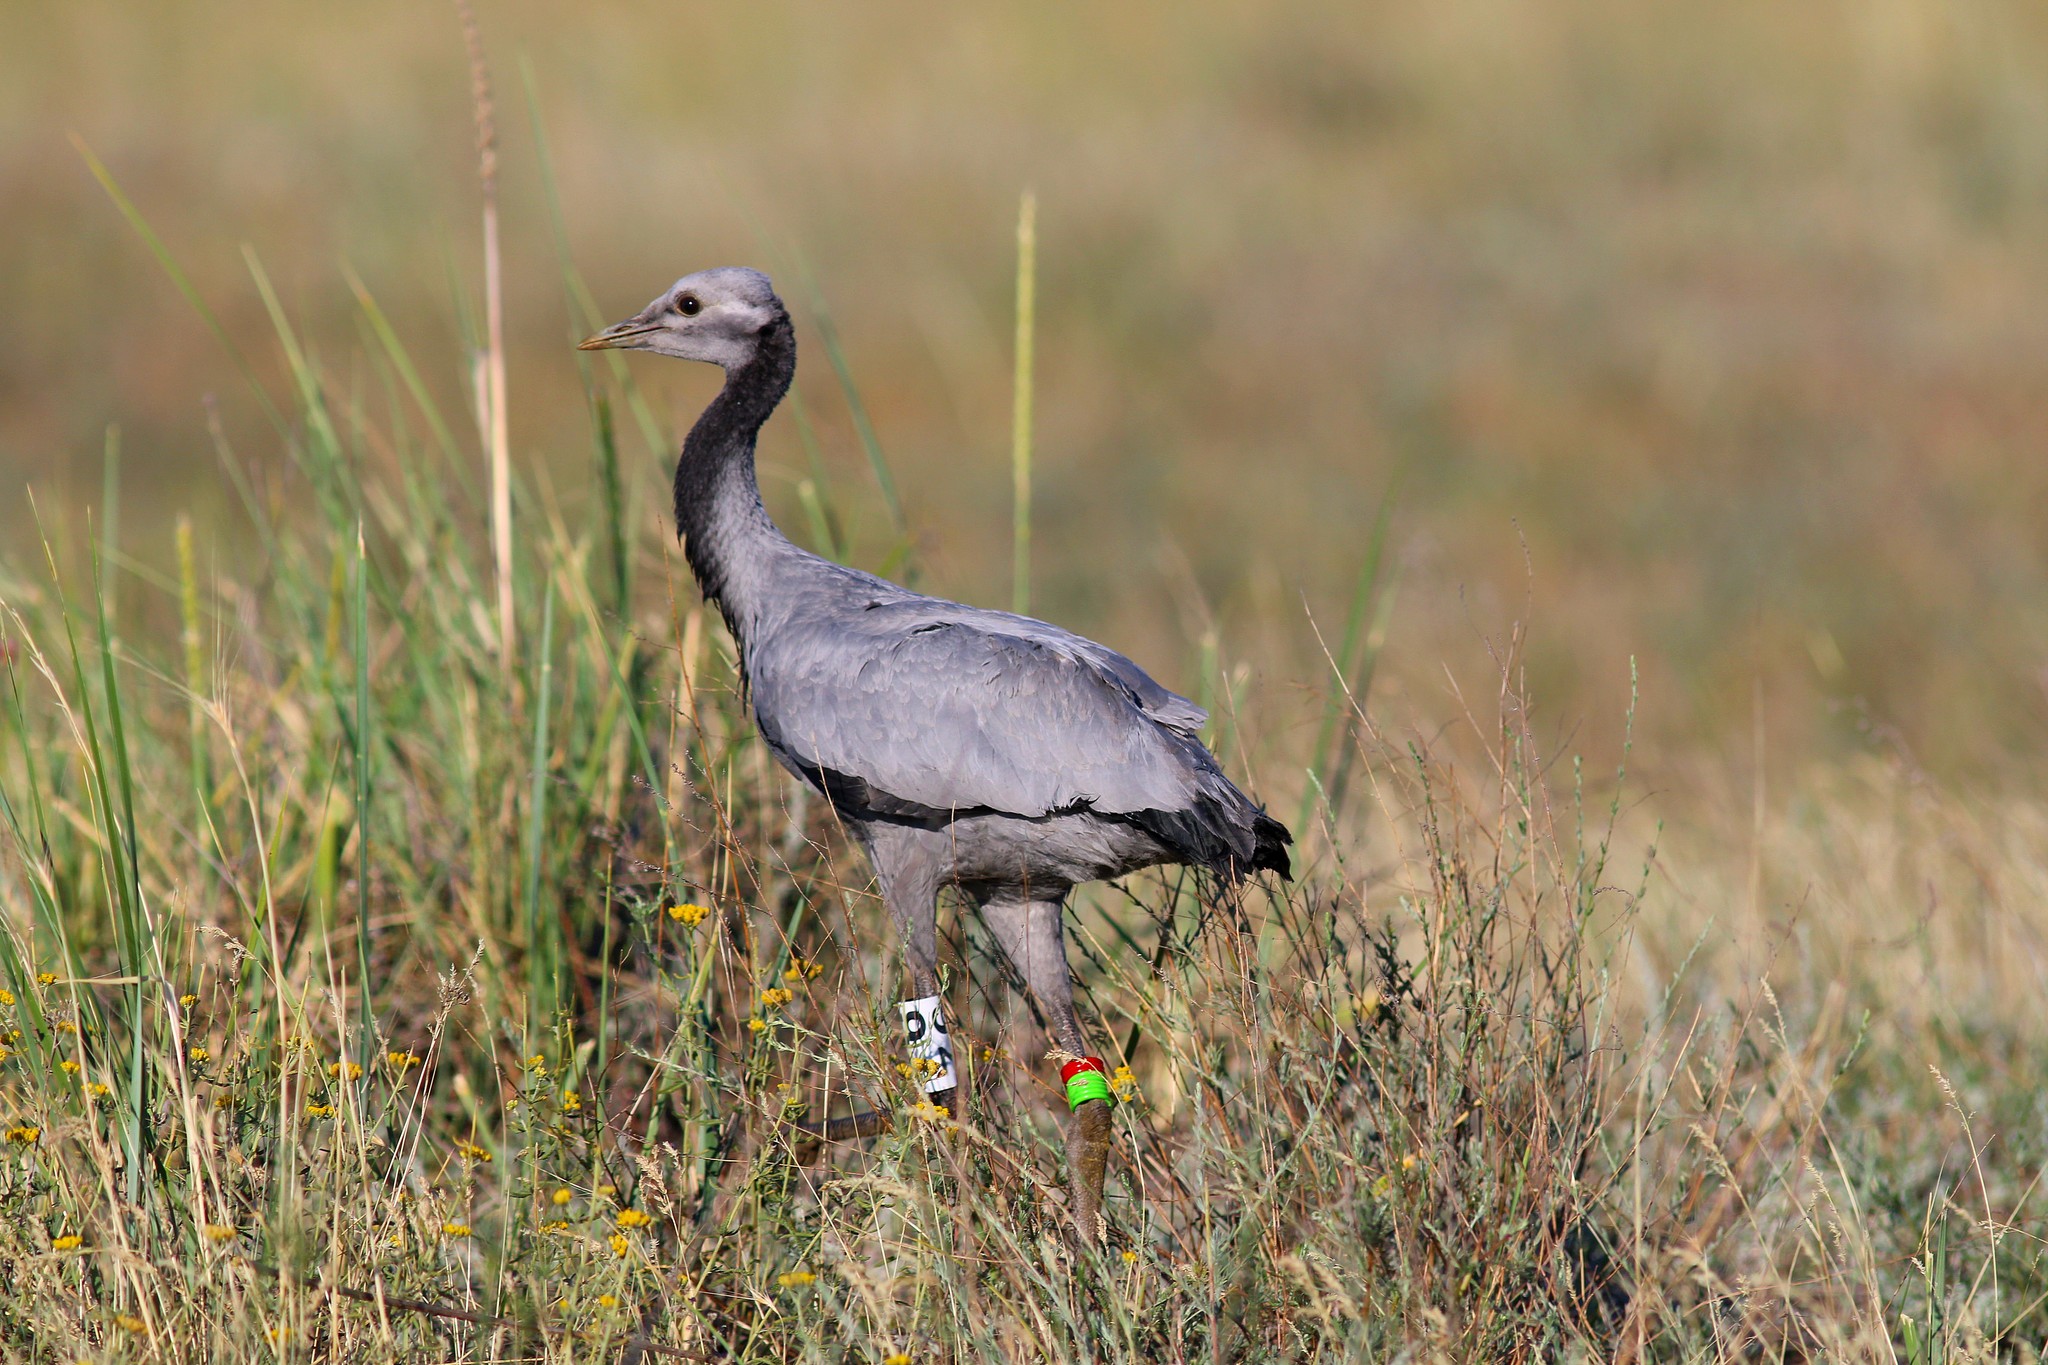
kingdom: Animalia
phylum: Chordata
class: Aves
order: Gruiformes
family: Gruidae
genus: Anthropoides
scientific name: Anthropoides virgo
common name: Demoiselle crane
